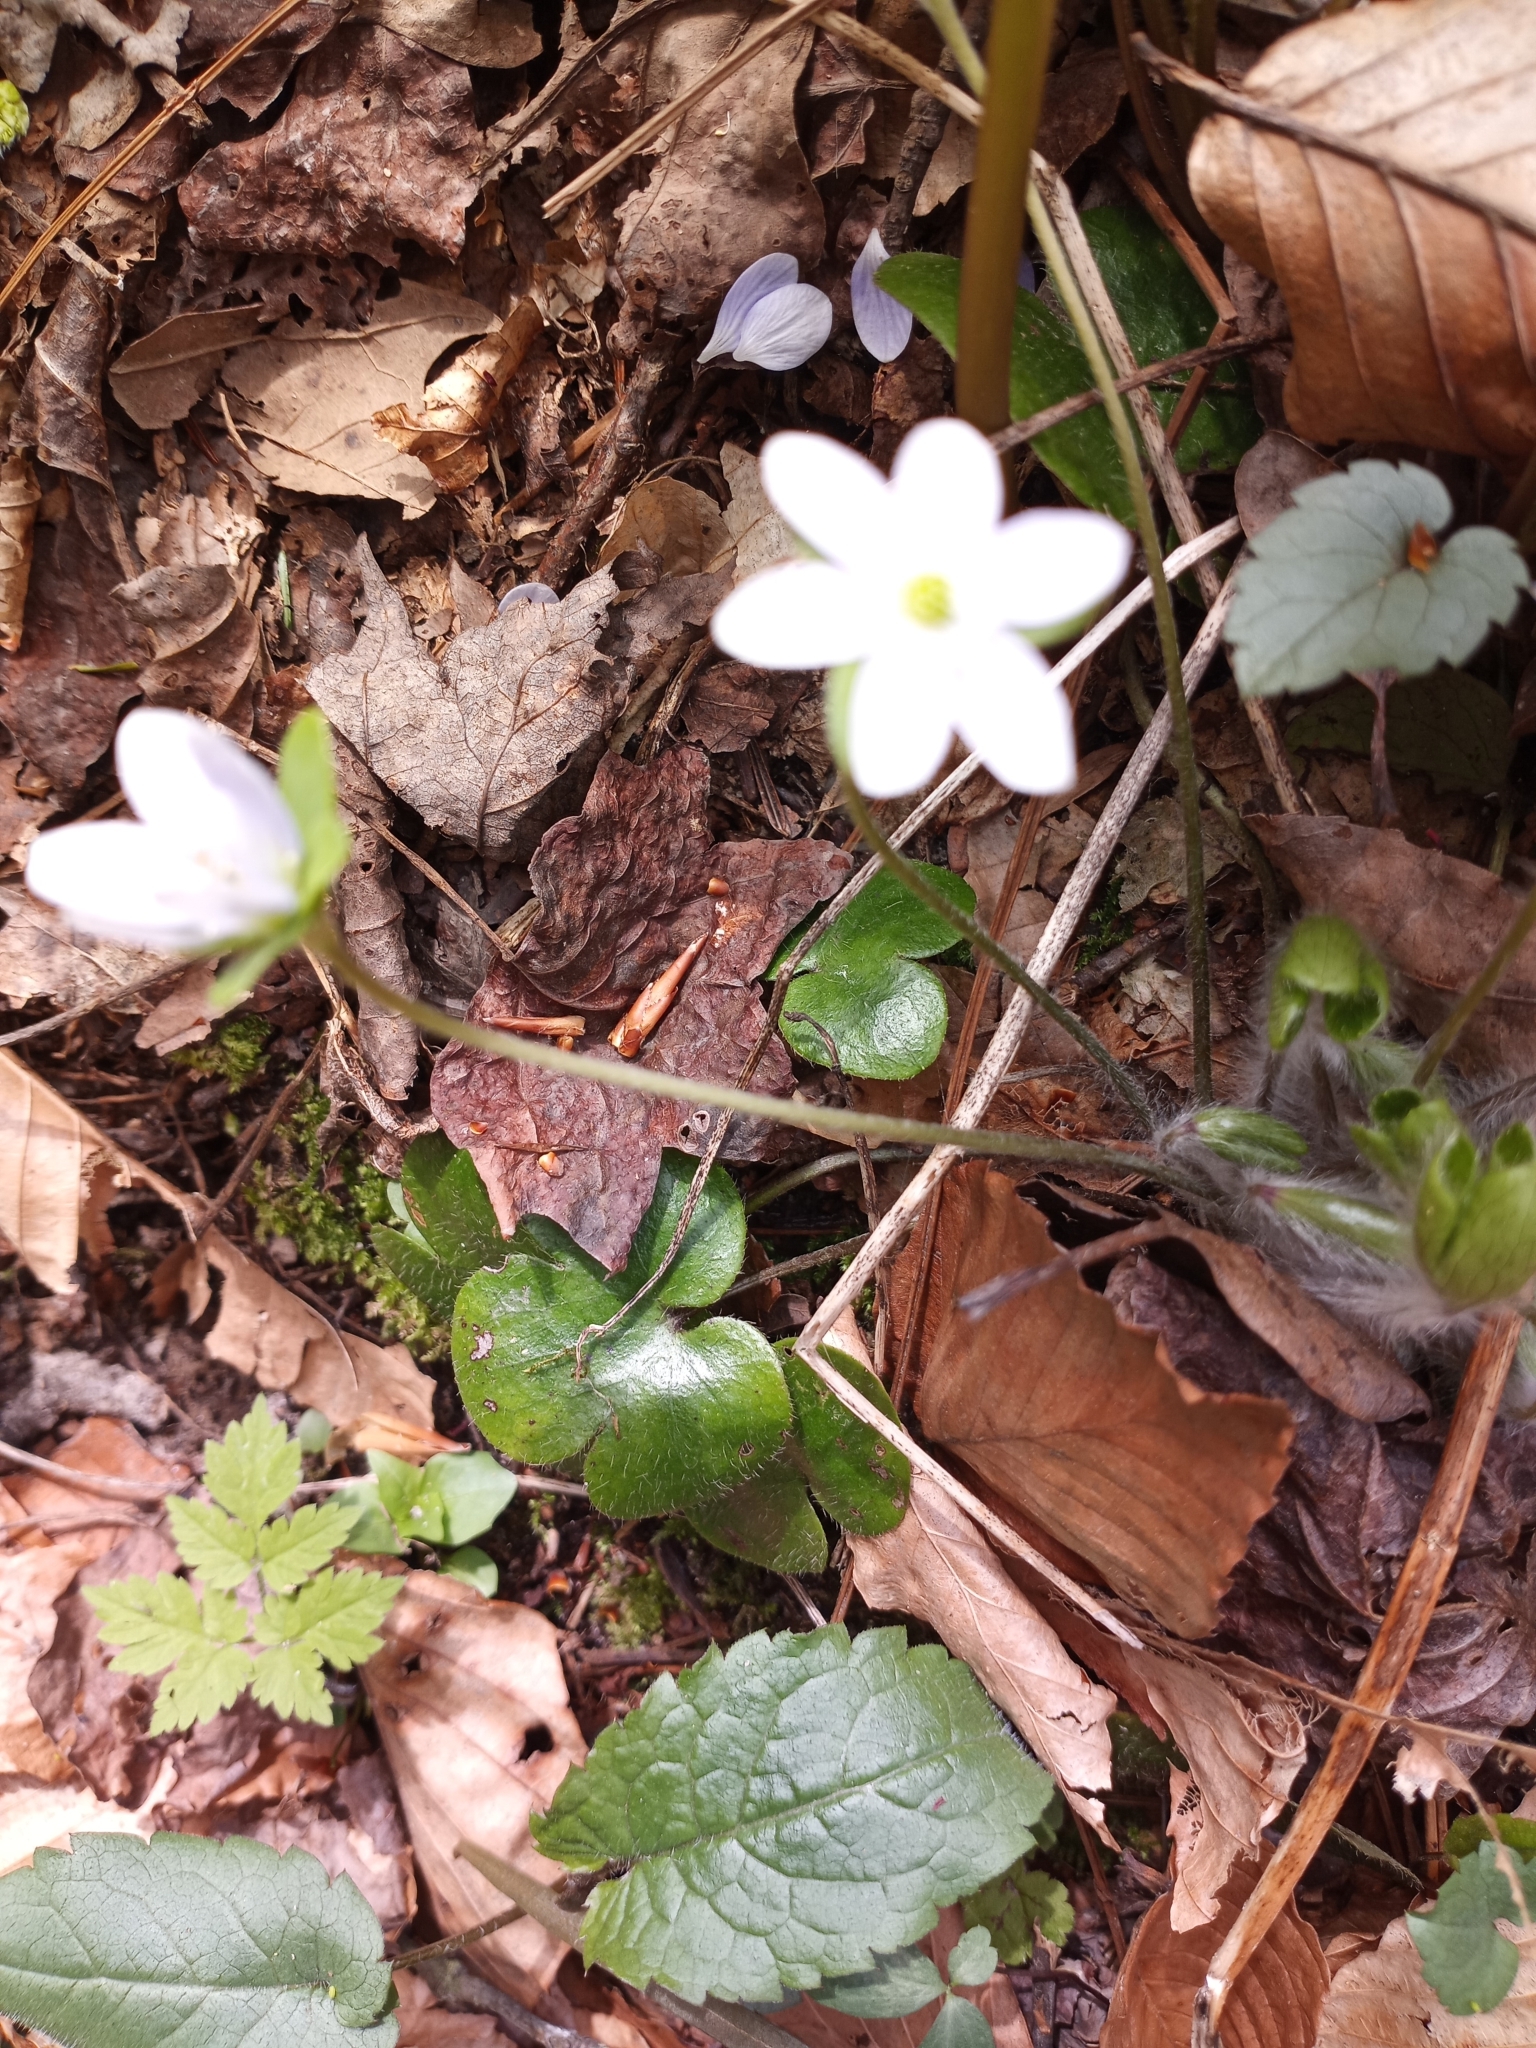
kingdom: Plantae
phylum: Tracheophyta
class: Magnoliopsida
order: Ranunculales
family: Ranunculaceae
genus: Hepatica
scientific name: Hepatica americana
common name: American hepatica
